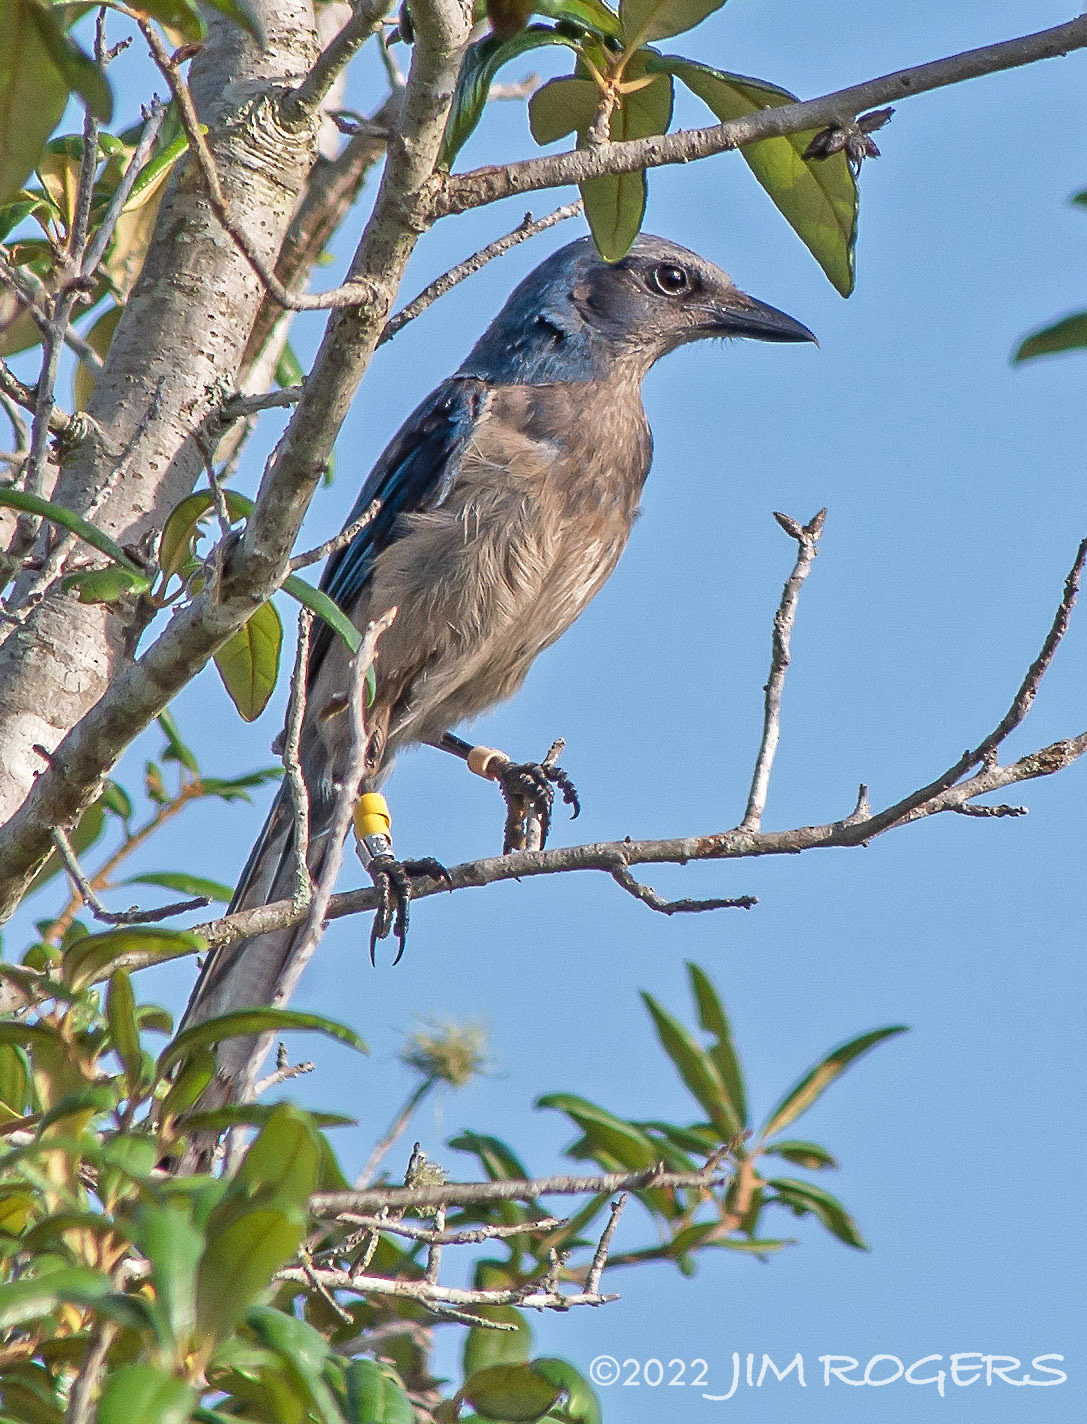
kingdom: Animalia
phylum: Chordata
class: Aves
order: Passeriformes
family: Corvidae
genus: Aphelocoma
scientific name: Aphelocoma coerulescens
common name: Florida scrub jay
